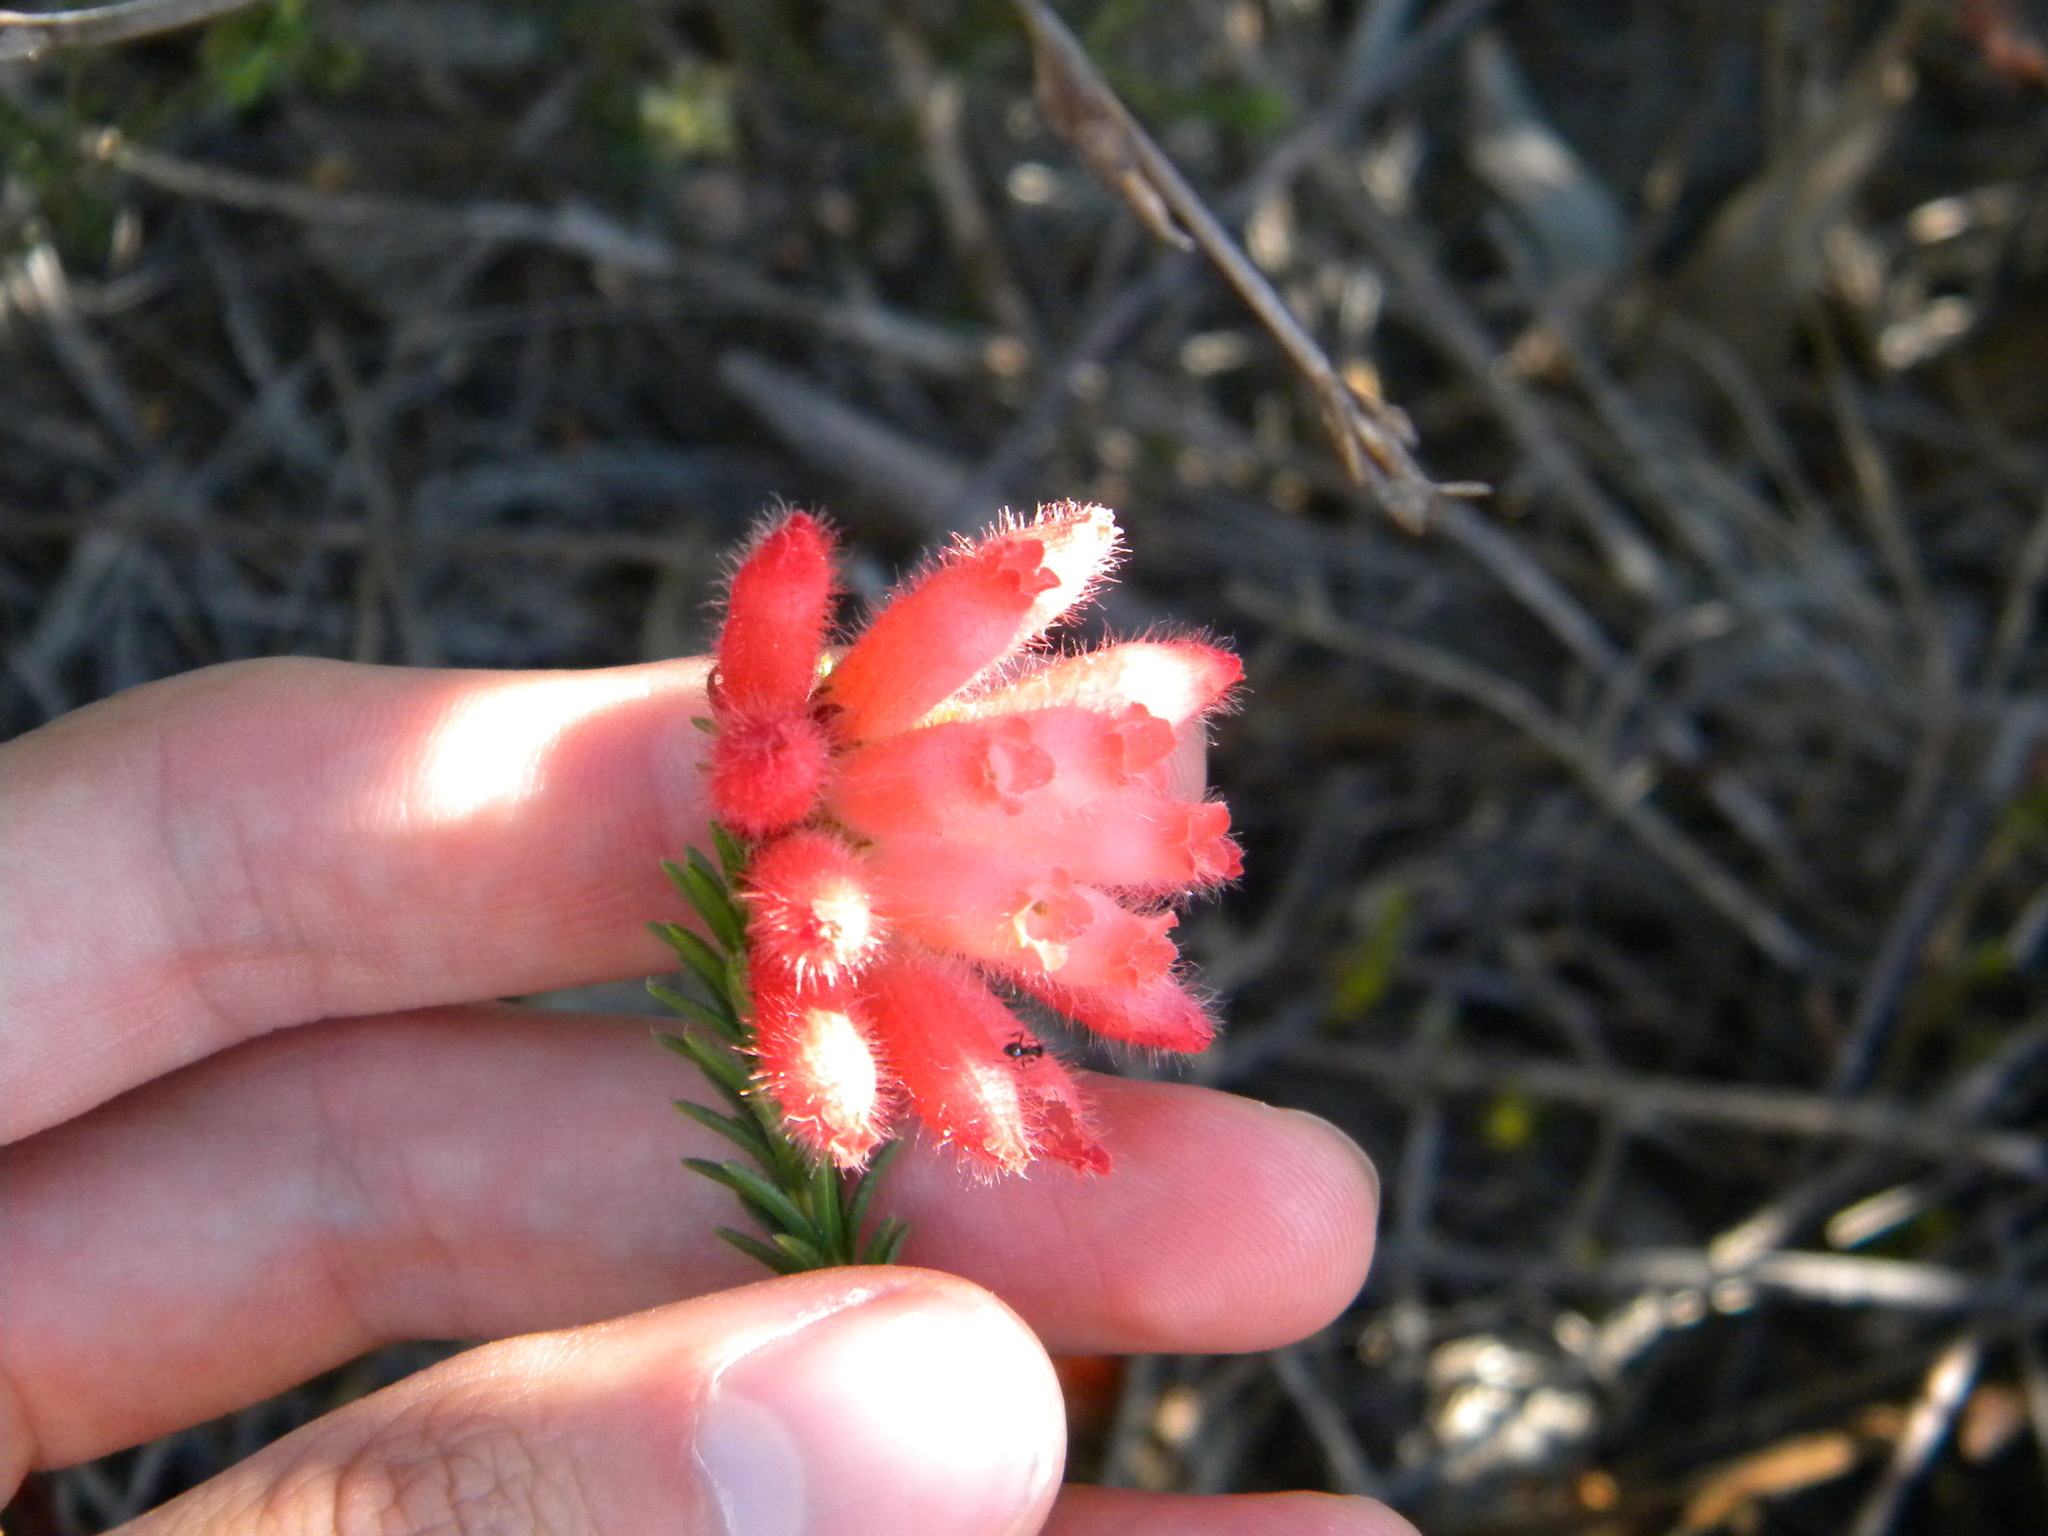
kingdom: Plantae
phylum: Tracheophyta
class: Magnoliopsida
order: Ericales
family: Ericaceae
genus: Erica
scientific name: Erica cerinthoides
